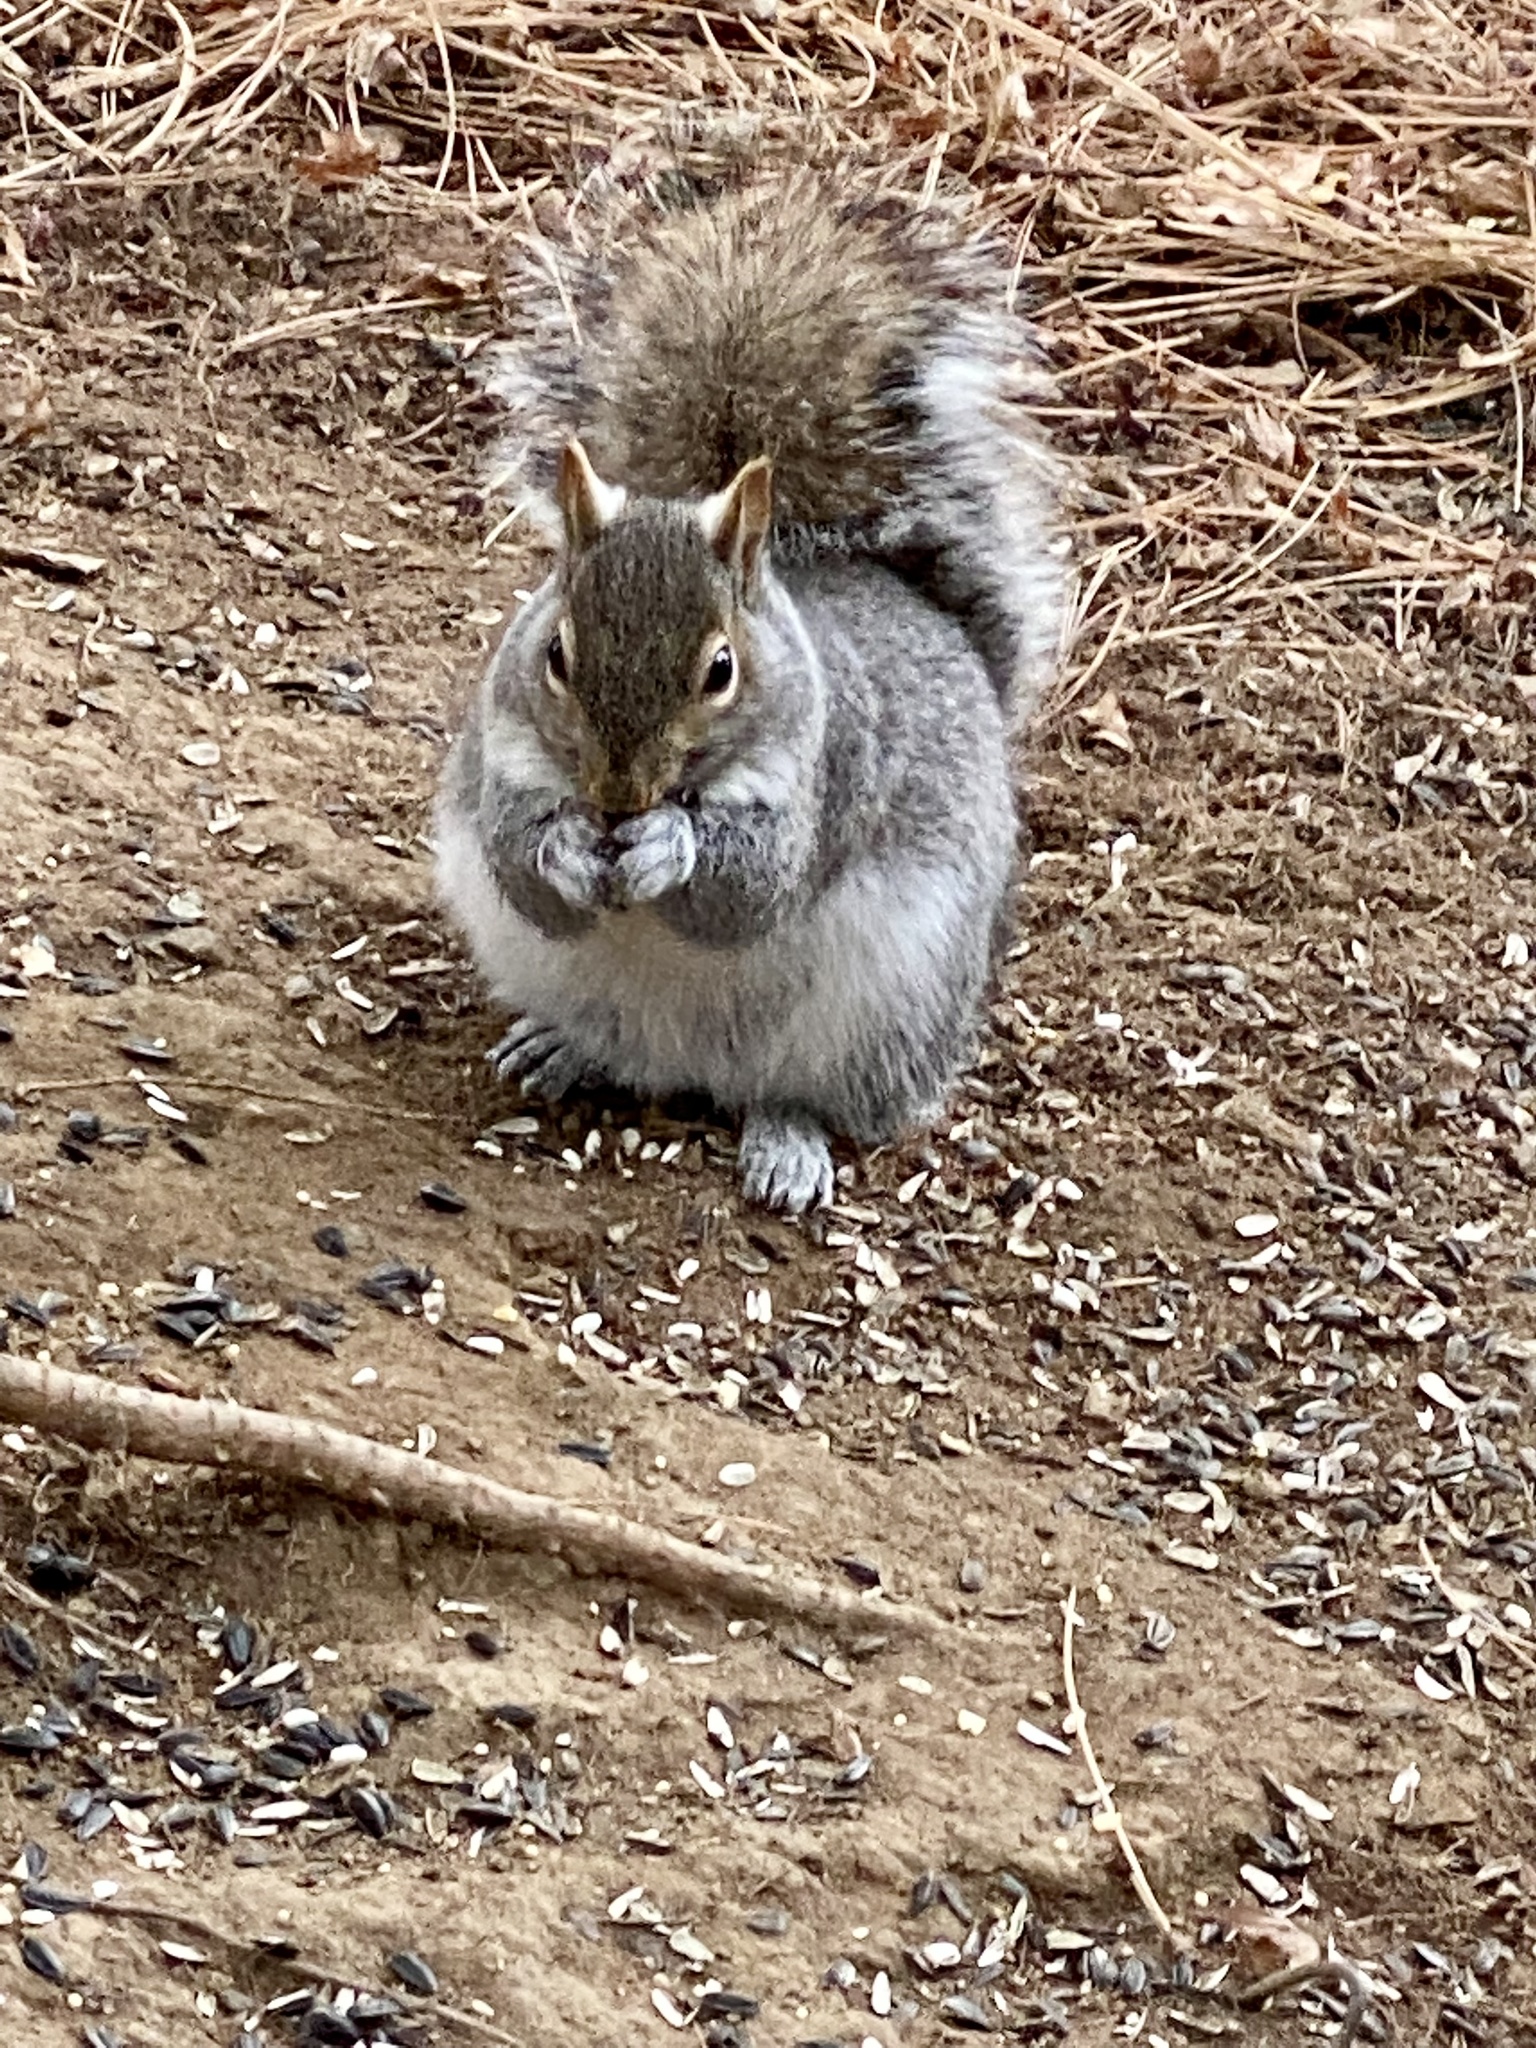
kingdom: Animalia
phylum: Chordata
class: Mammalia
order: Rodentia
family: Sciuridae
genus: Sciurus
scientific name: Sciurus carolinensis
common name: Eastern gray squirrel
